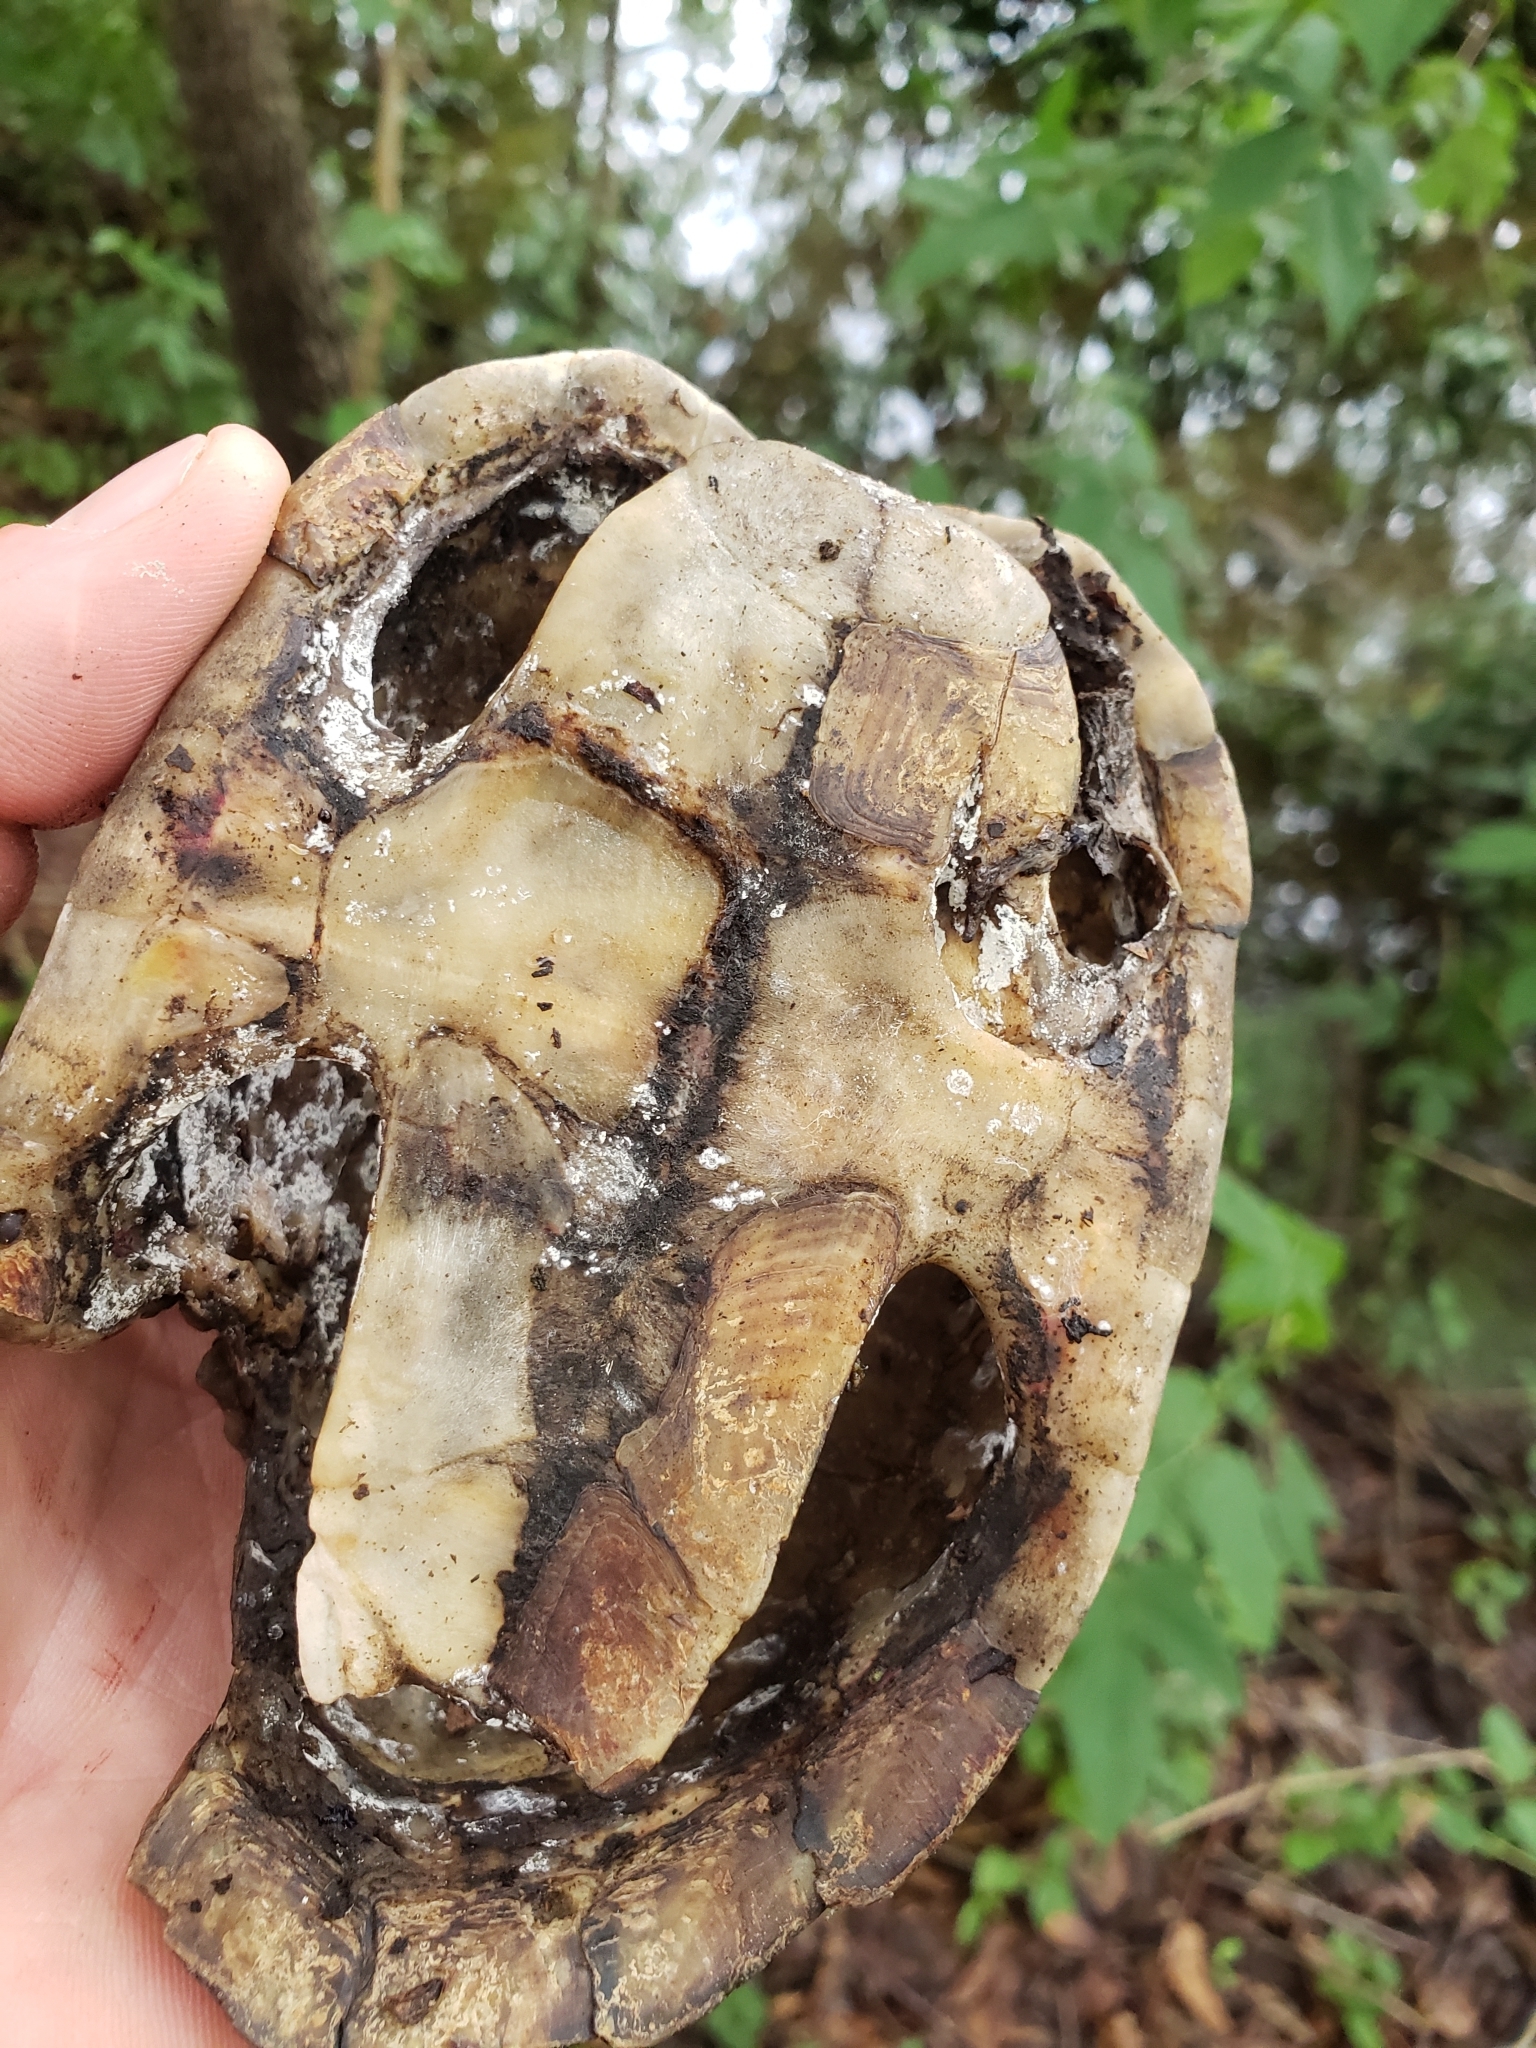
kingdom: Animalia
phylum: Chordata
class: Testudines
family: Kinosternidae
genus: Sternotherus
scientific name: Sternotherus carinatus
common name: Razor-backed musk turtle
